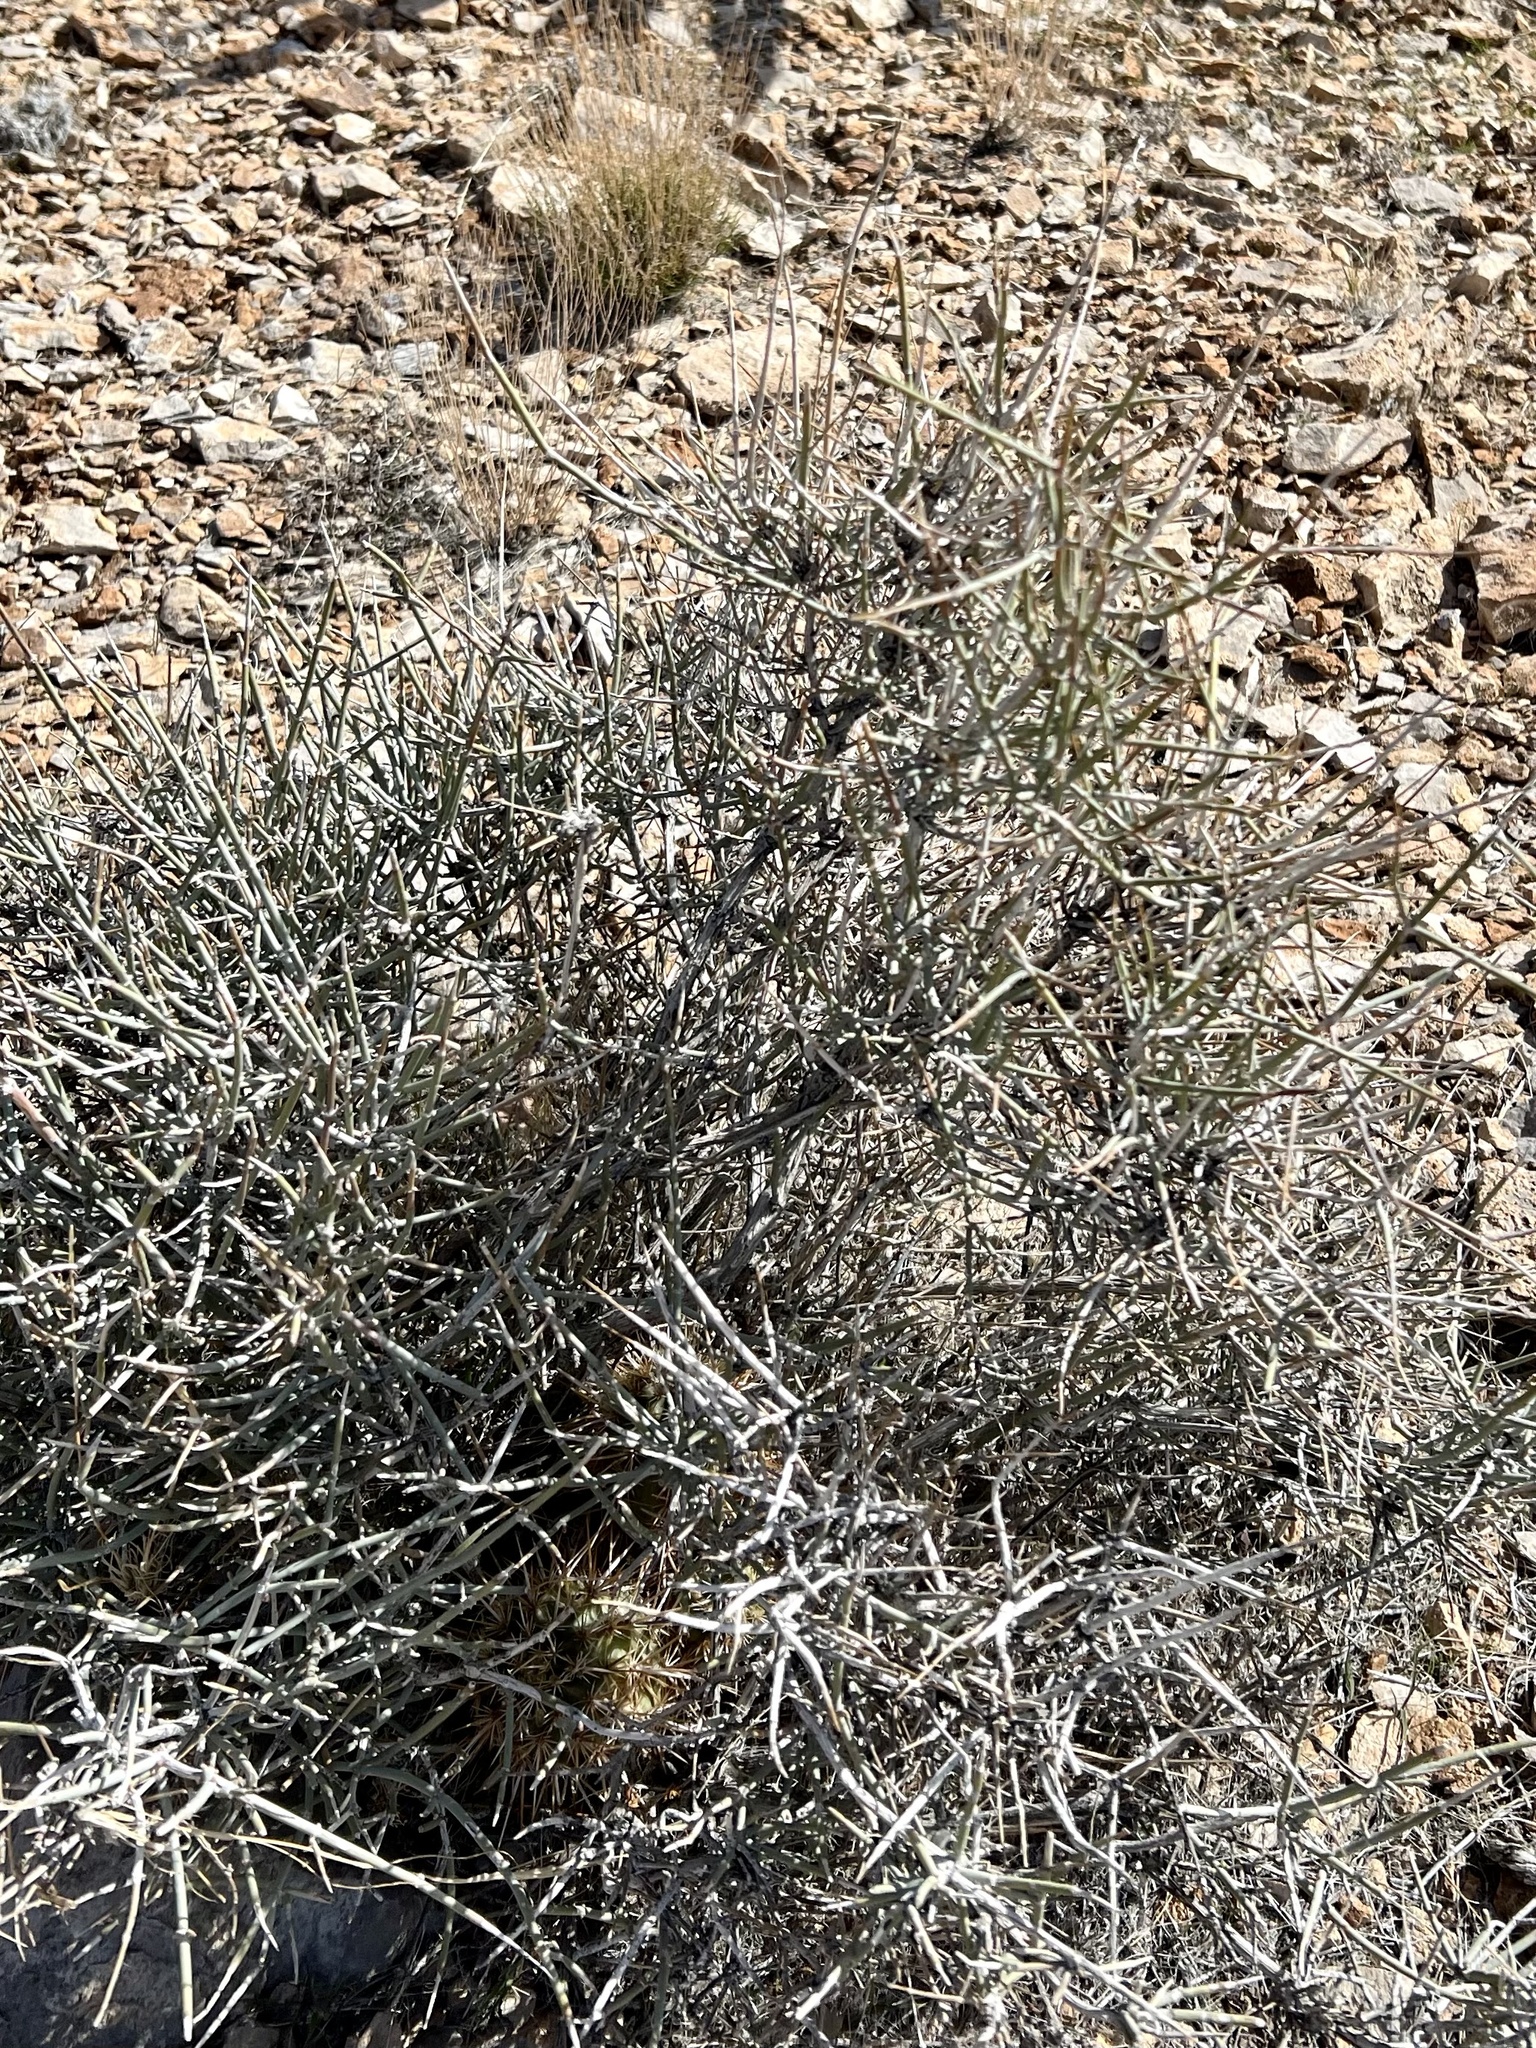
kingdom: Plantae
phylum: Tracheophyta
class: Gnetopsida
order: Ephedrales
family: Ephedraceae
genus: Ephedra
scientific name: Ephedra nevadensis
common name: Gray ephedra
